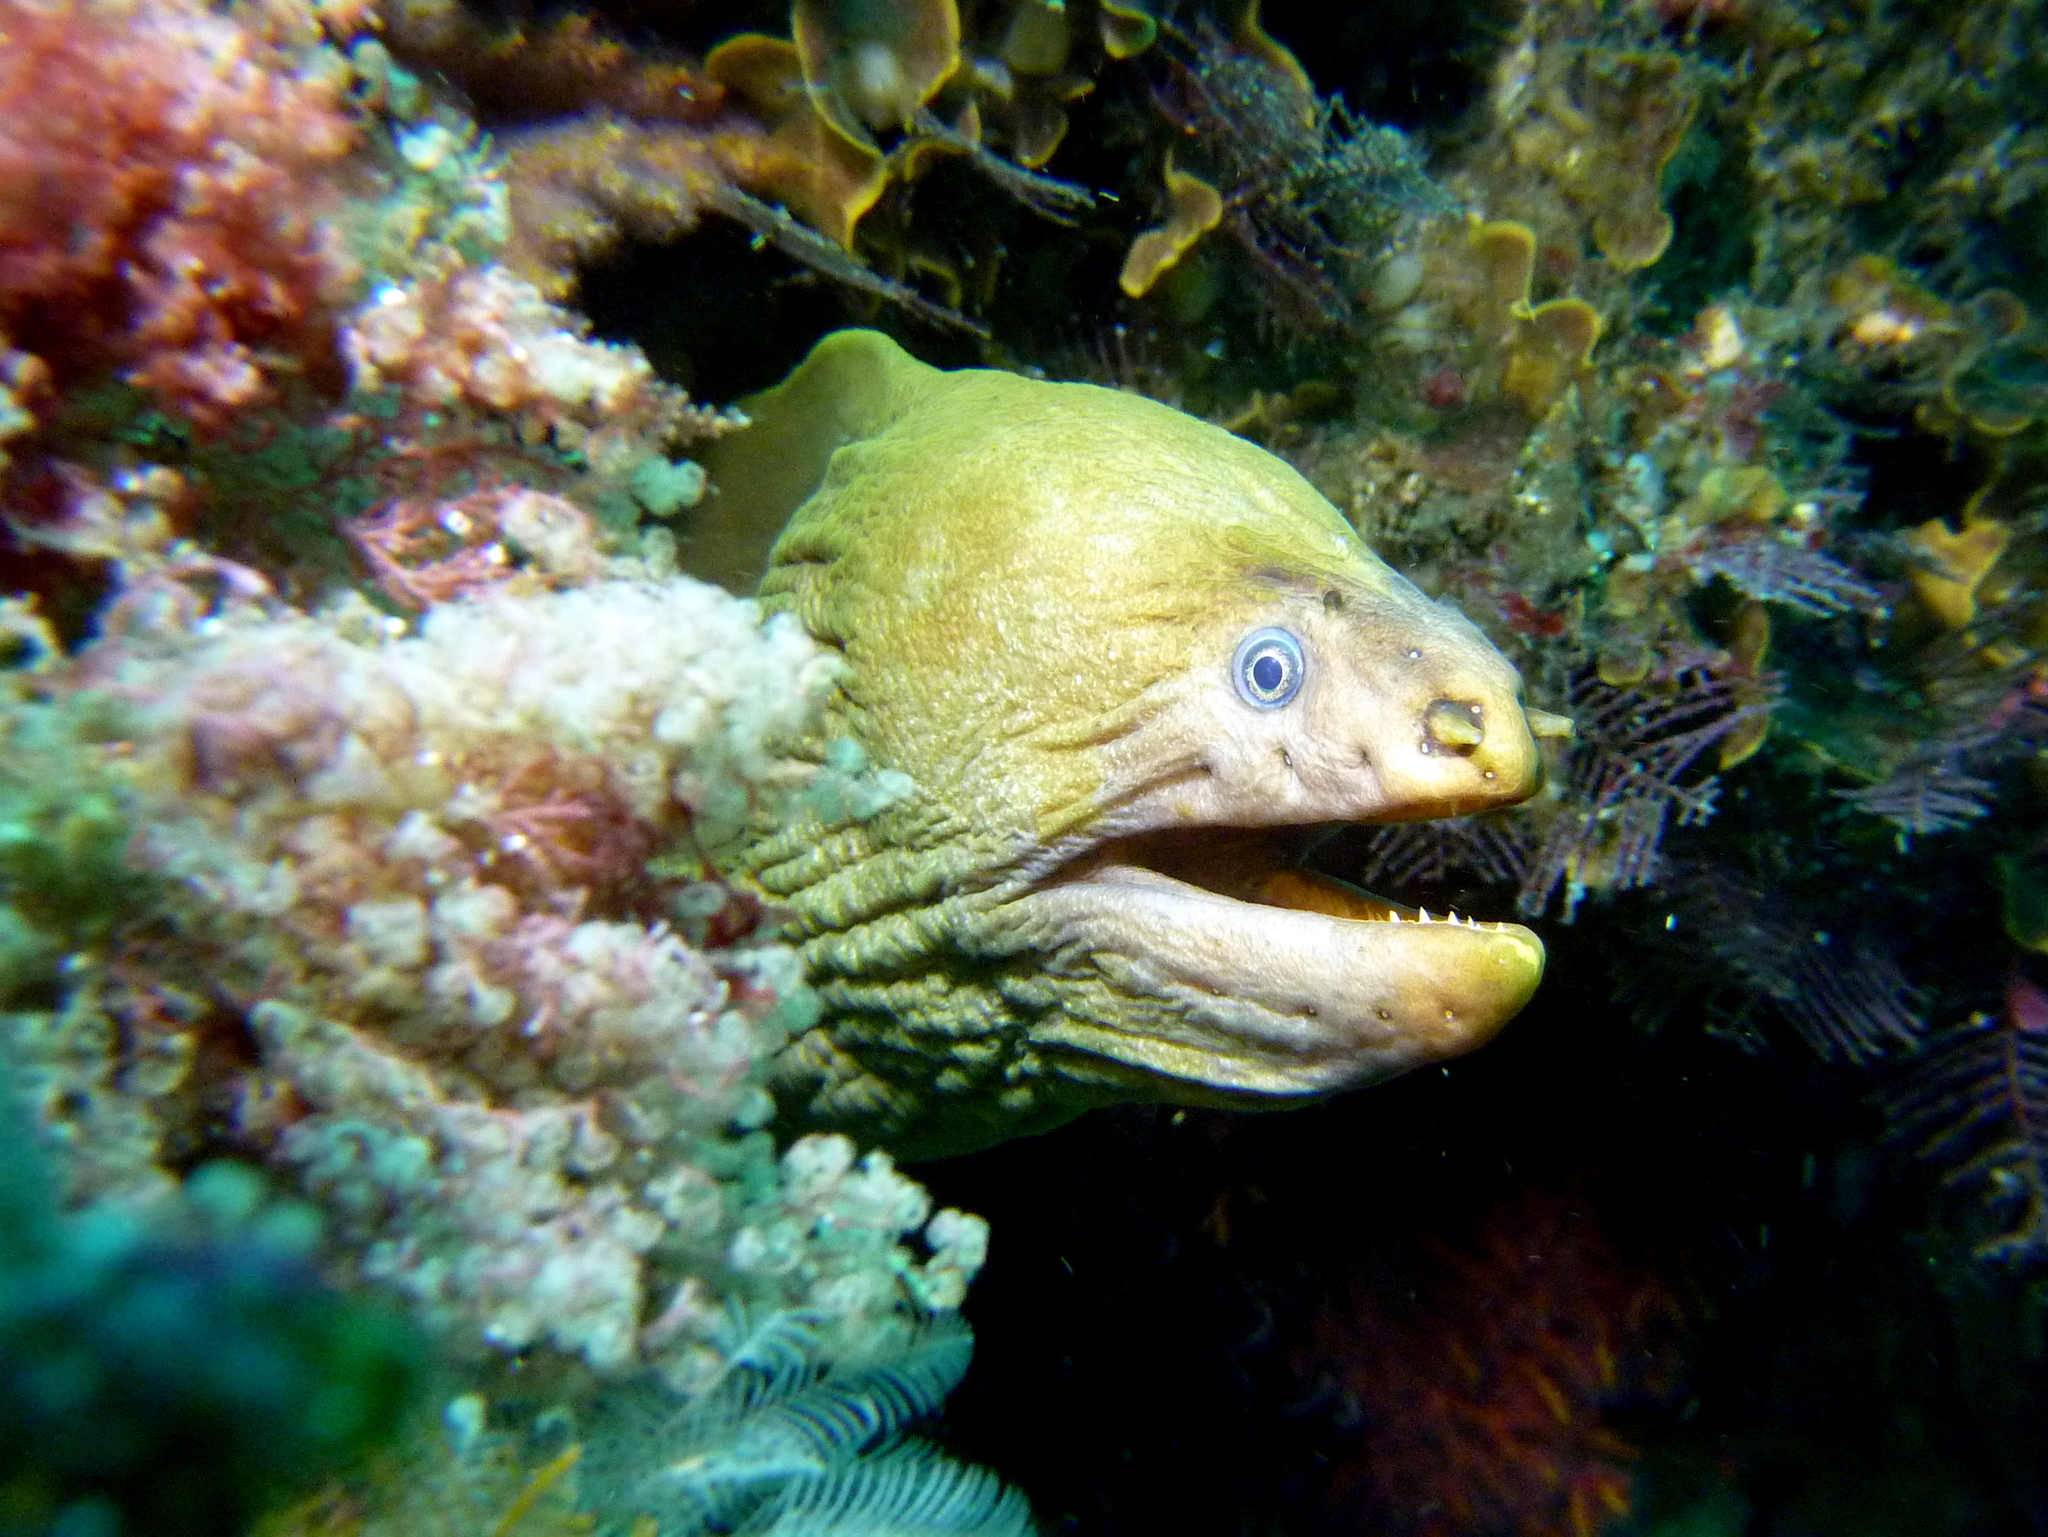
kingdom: Animalia
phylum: Chordata
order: Anguilliformes
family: Muraenidae
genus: Gymnothorax
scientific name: Gymnothorax prasinus
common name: Yellow moray
